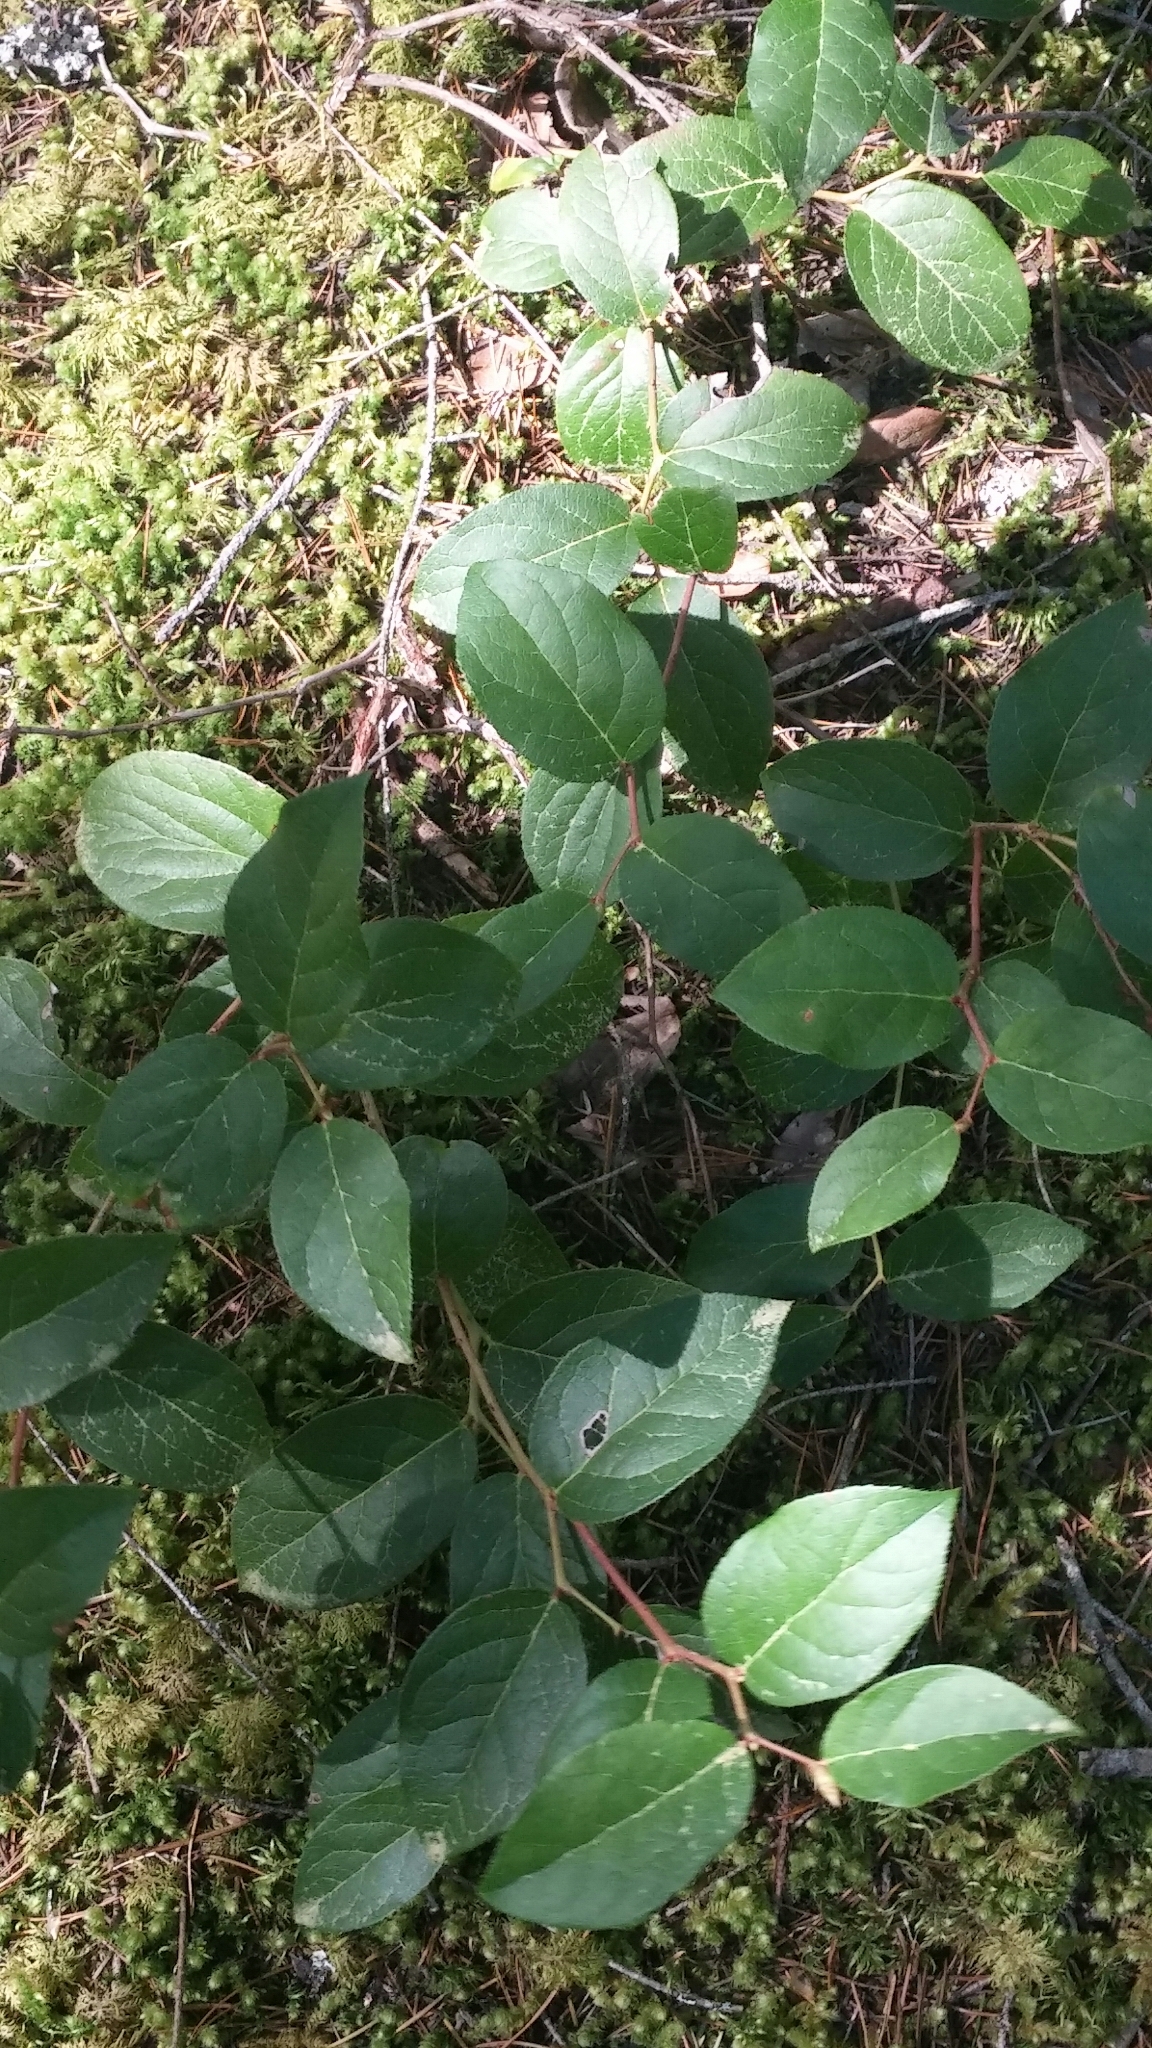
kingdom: Plantae
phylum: Tracheophyta
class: Magnoliopsida
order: Ericales
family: Ericaceae
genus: Gaultheria
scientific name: Gaultheria shallon
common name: Shallon
